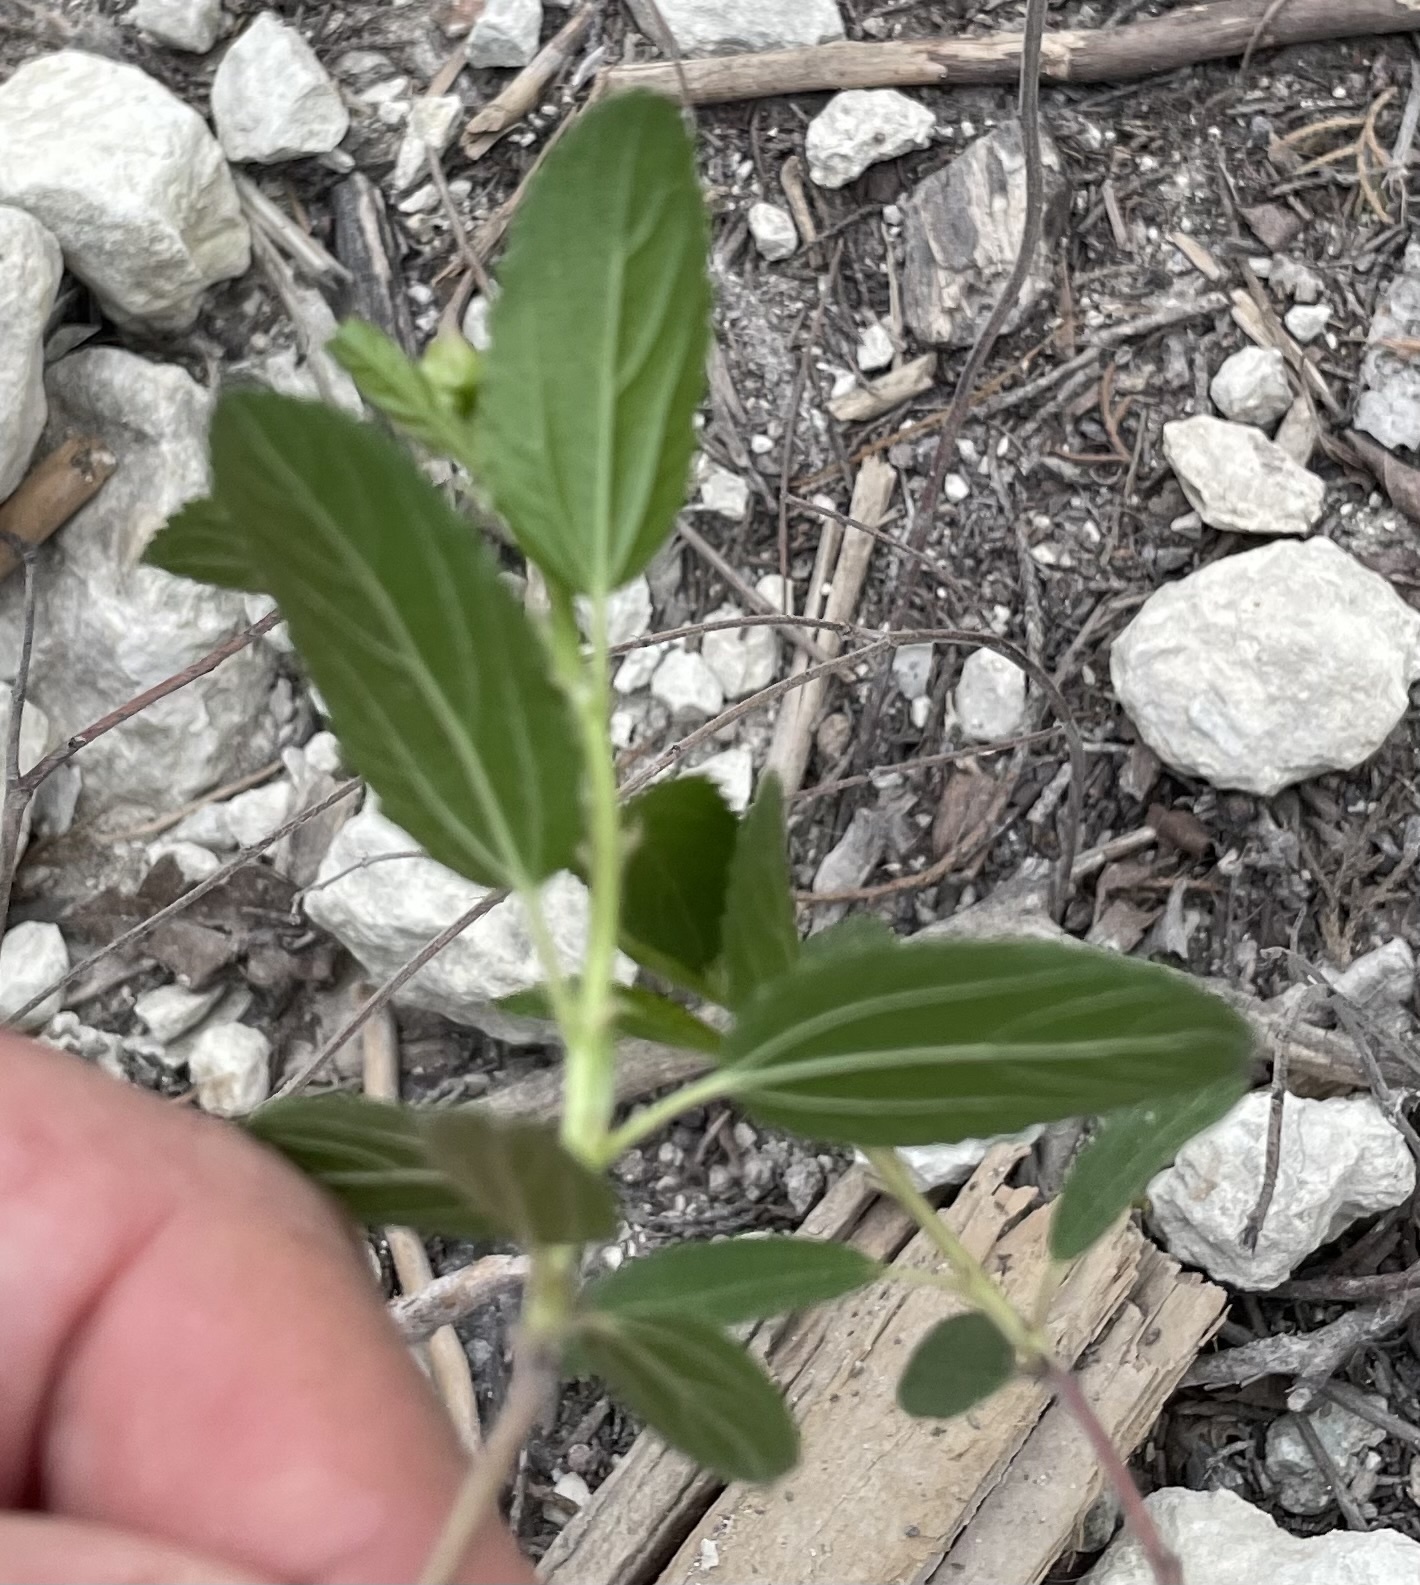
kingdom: Plantae
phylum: Tracheophyta
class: Magnoliopsida
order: Rosales
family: Rhamnaceae
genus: Ceanothus
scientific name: Ceanothus herbaceus
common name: Inland ceanothus
